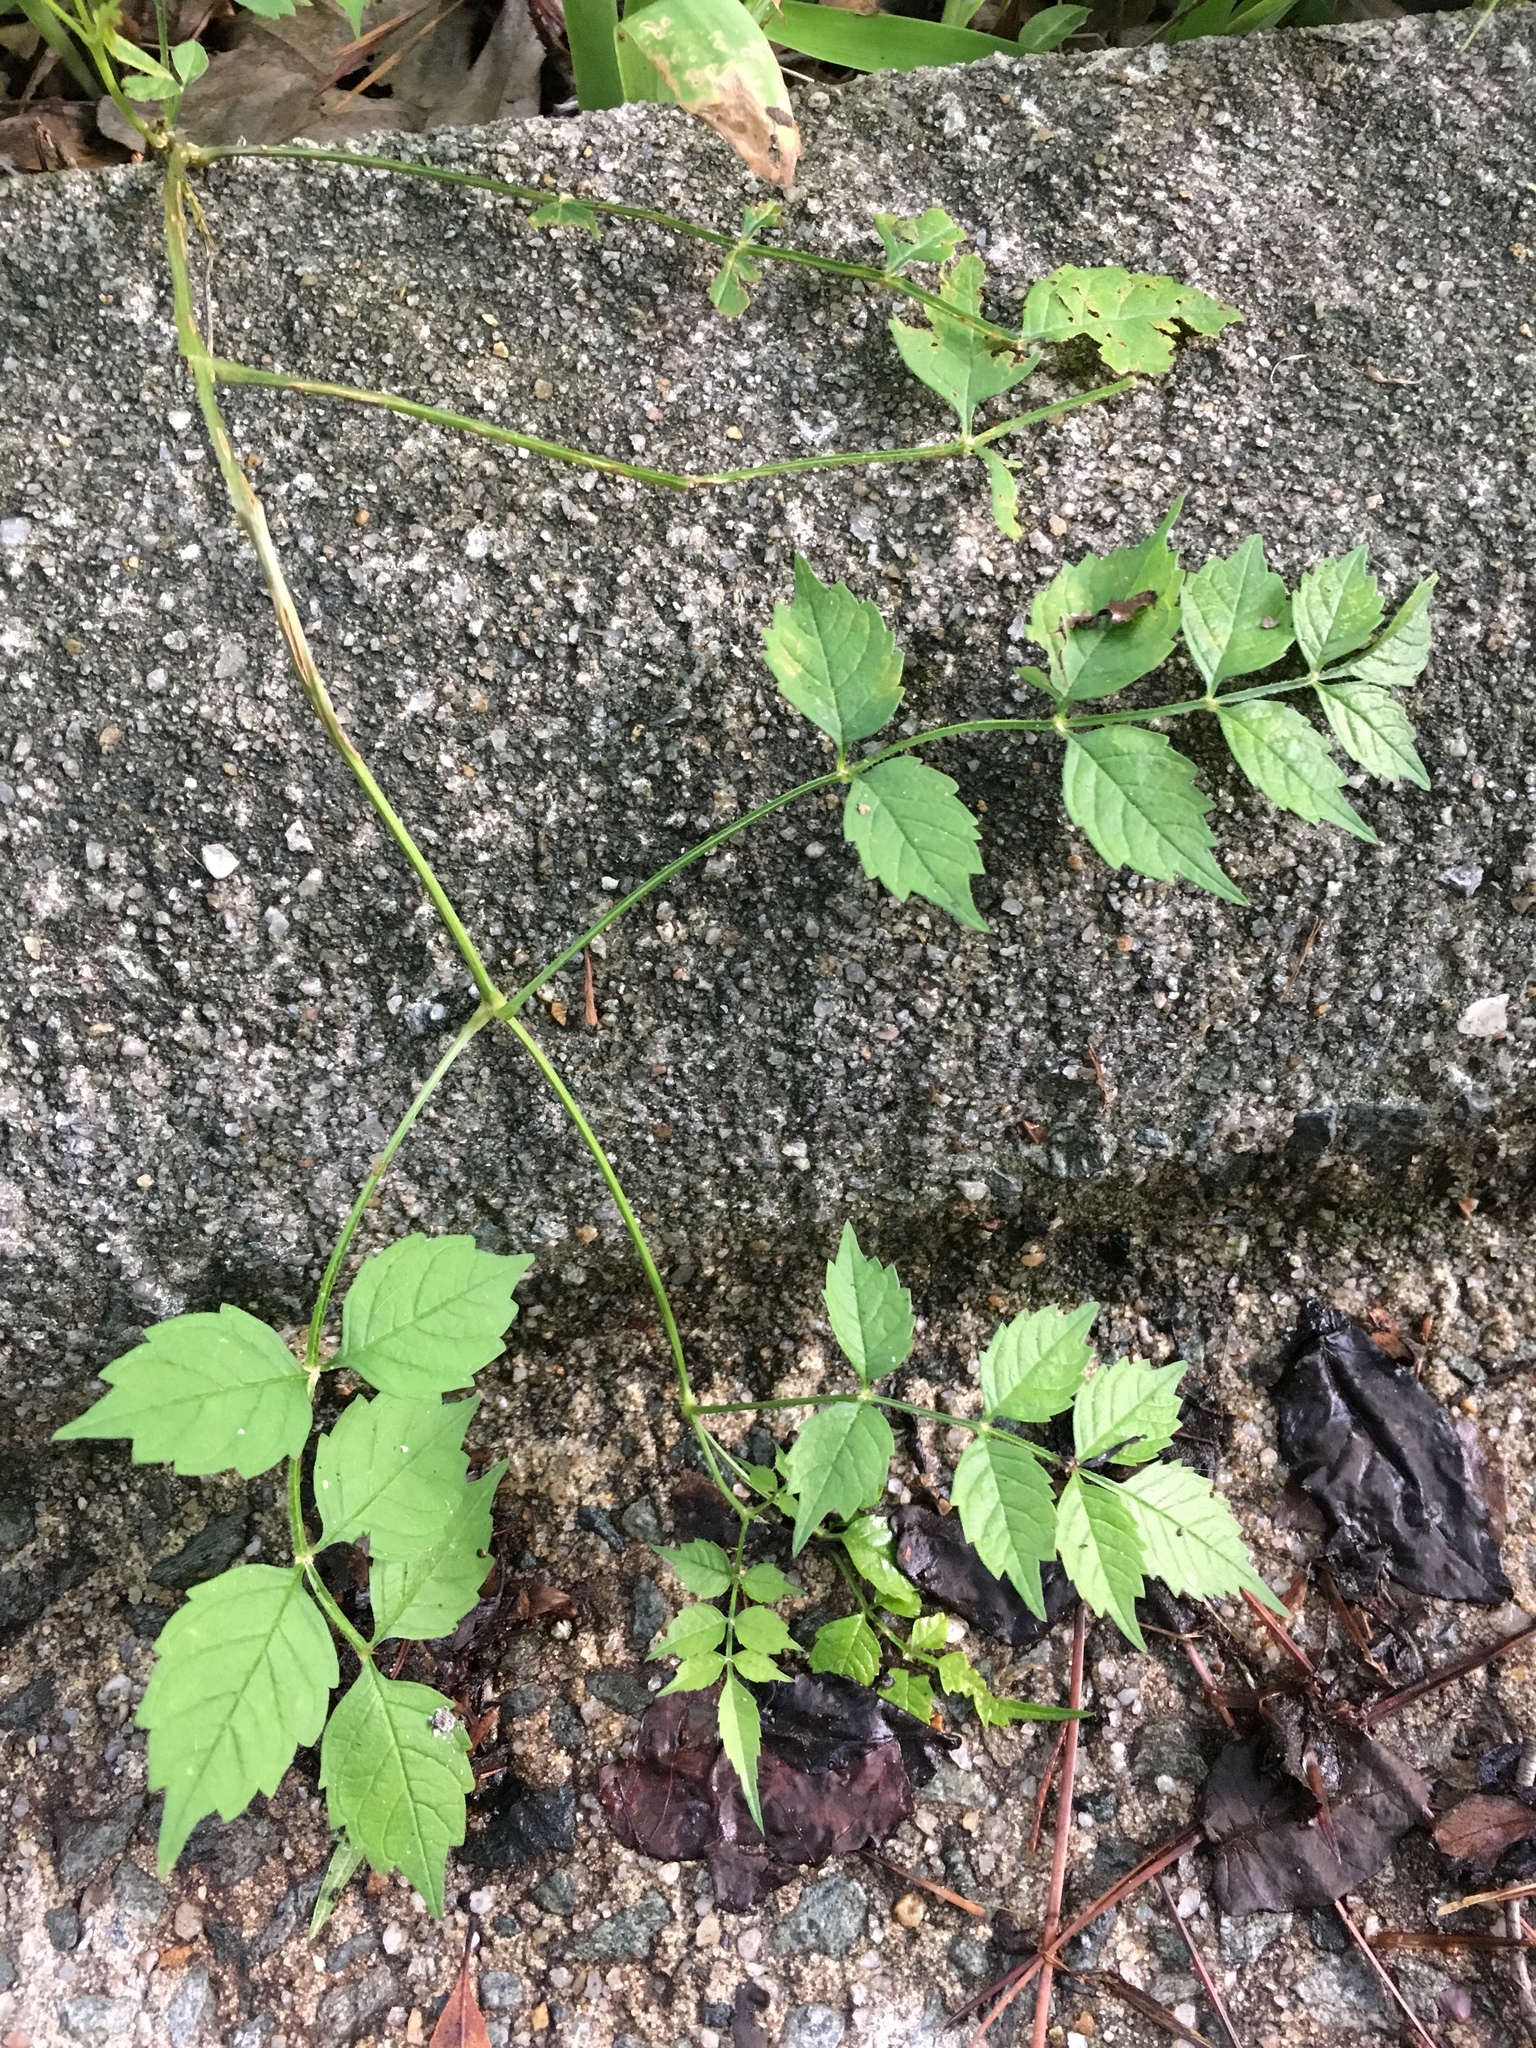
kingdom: Plantae
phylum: Tracheophyta
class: Magnoliopsida
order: Lamiales
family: Bignoniaceae
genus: Campsis
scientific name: Campsis radicans
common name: Trumpet-creeper
